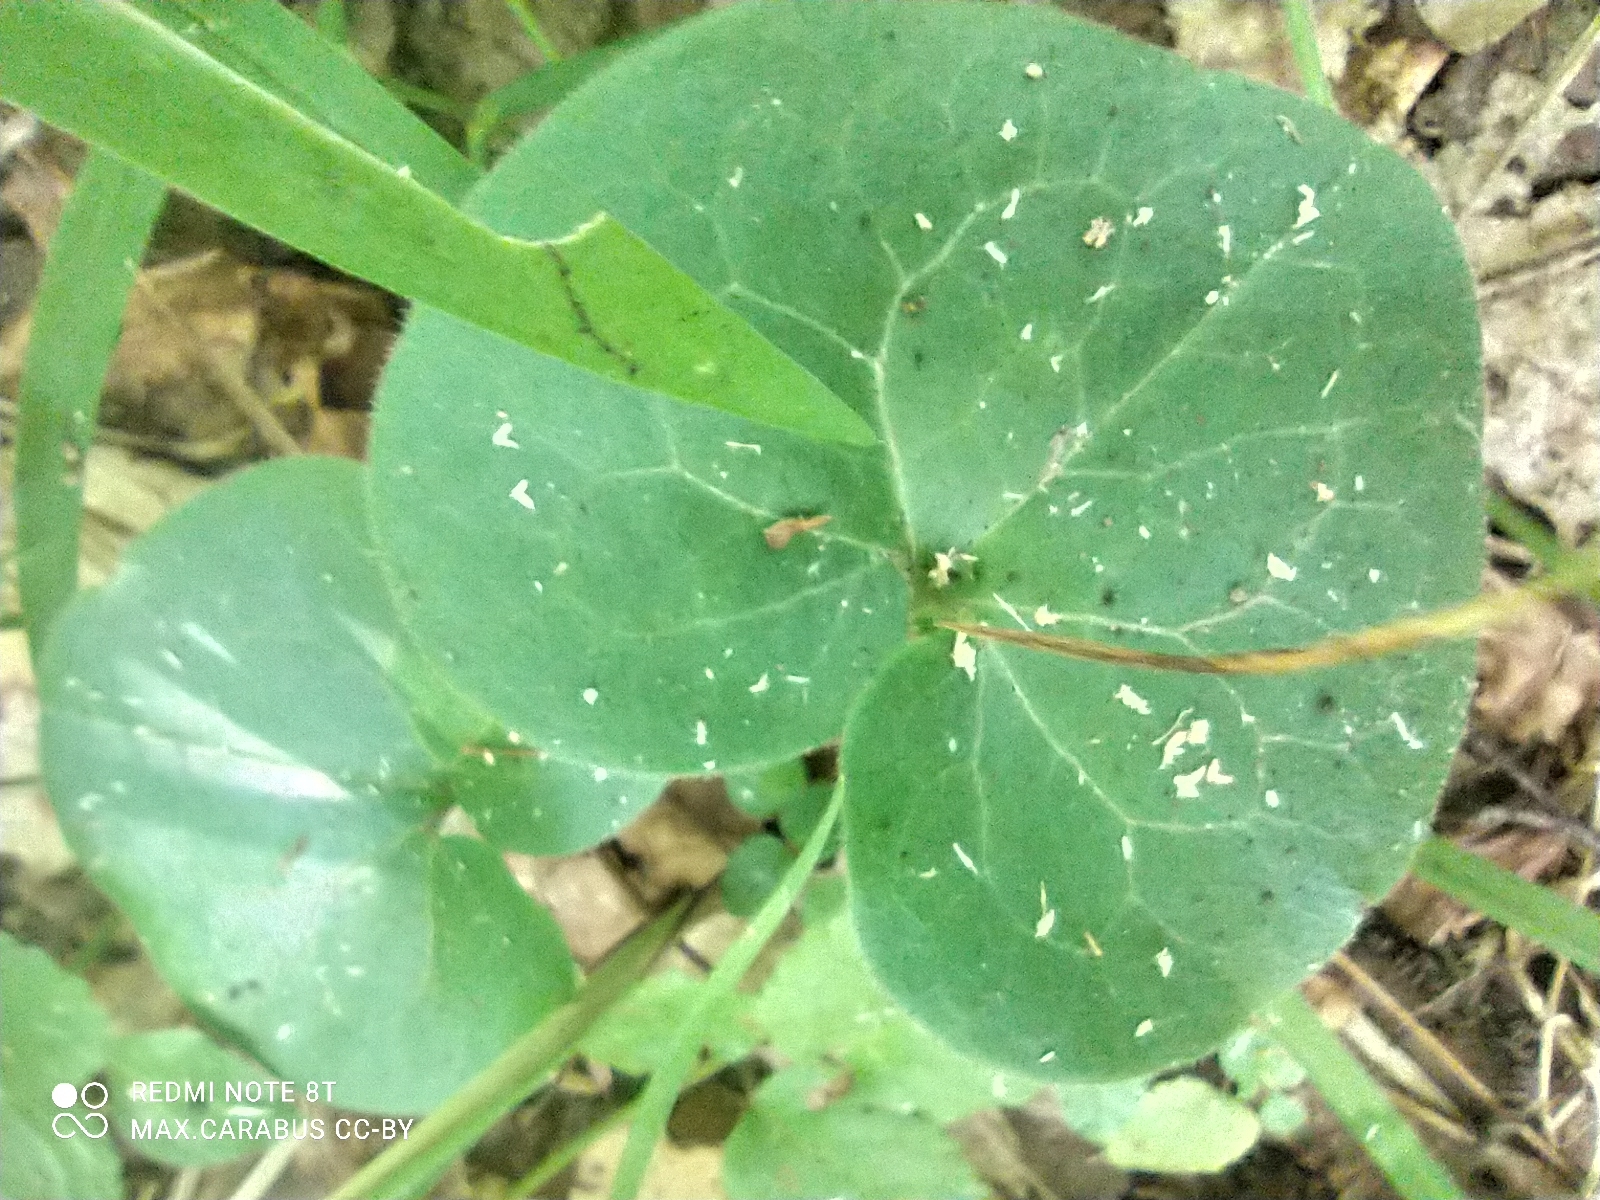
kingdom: Plantae
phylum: Tracheophyta
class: Magnoliopsida
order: Piperales
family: Aristolochiaceae
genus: Asarum
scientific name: Asarum europaeum
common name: Asarabacca
